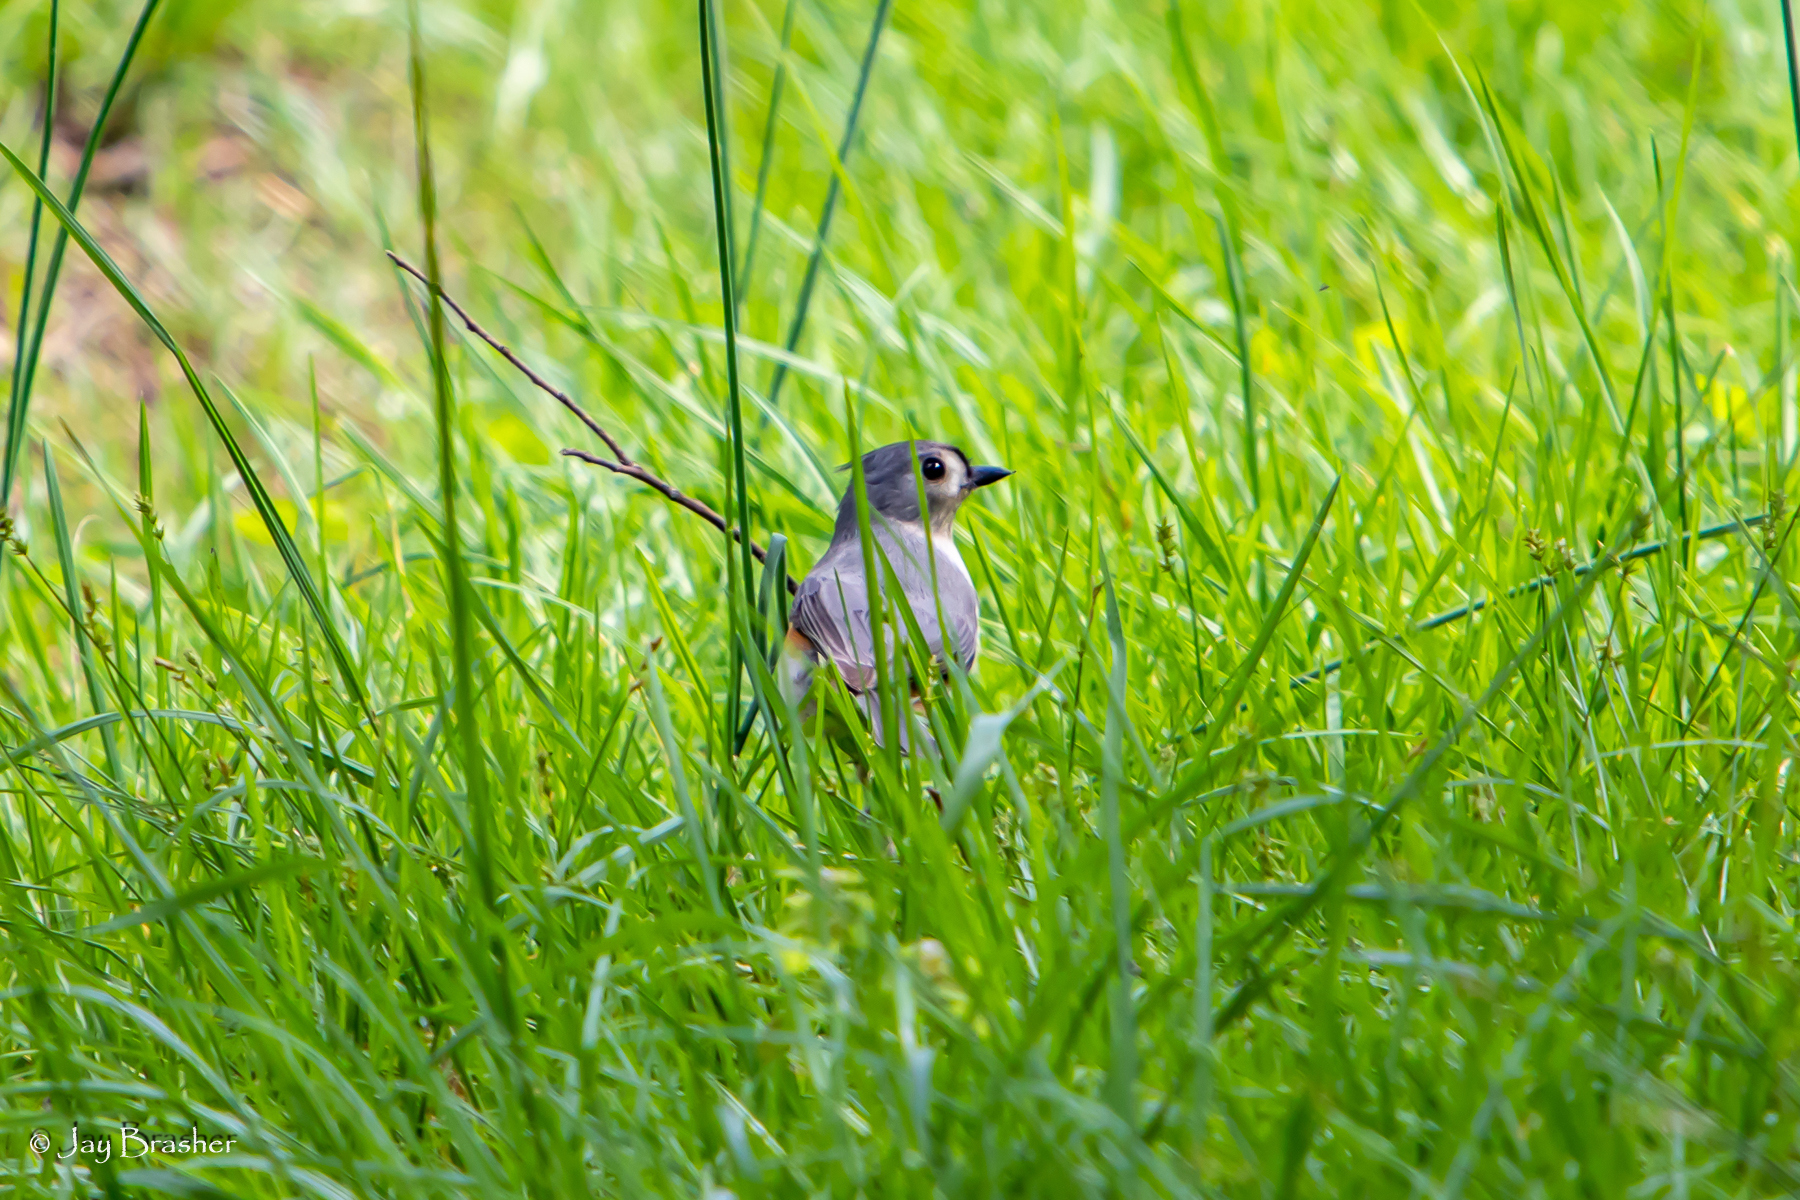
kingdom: Animalia
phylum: Chordata
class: Aves
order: Passeriformes
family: Paridae
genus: Baeolophus
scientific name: Baeolophus bicolor
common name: Tufted titmouse
